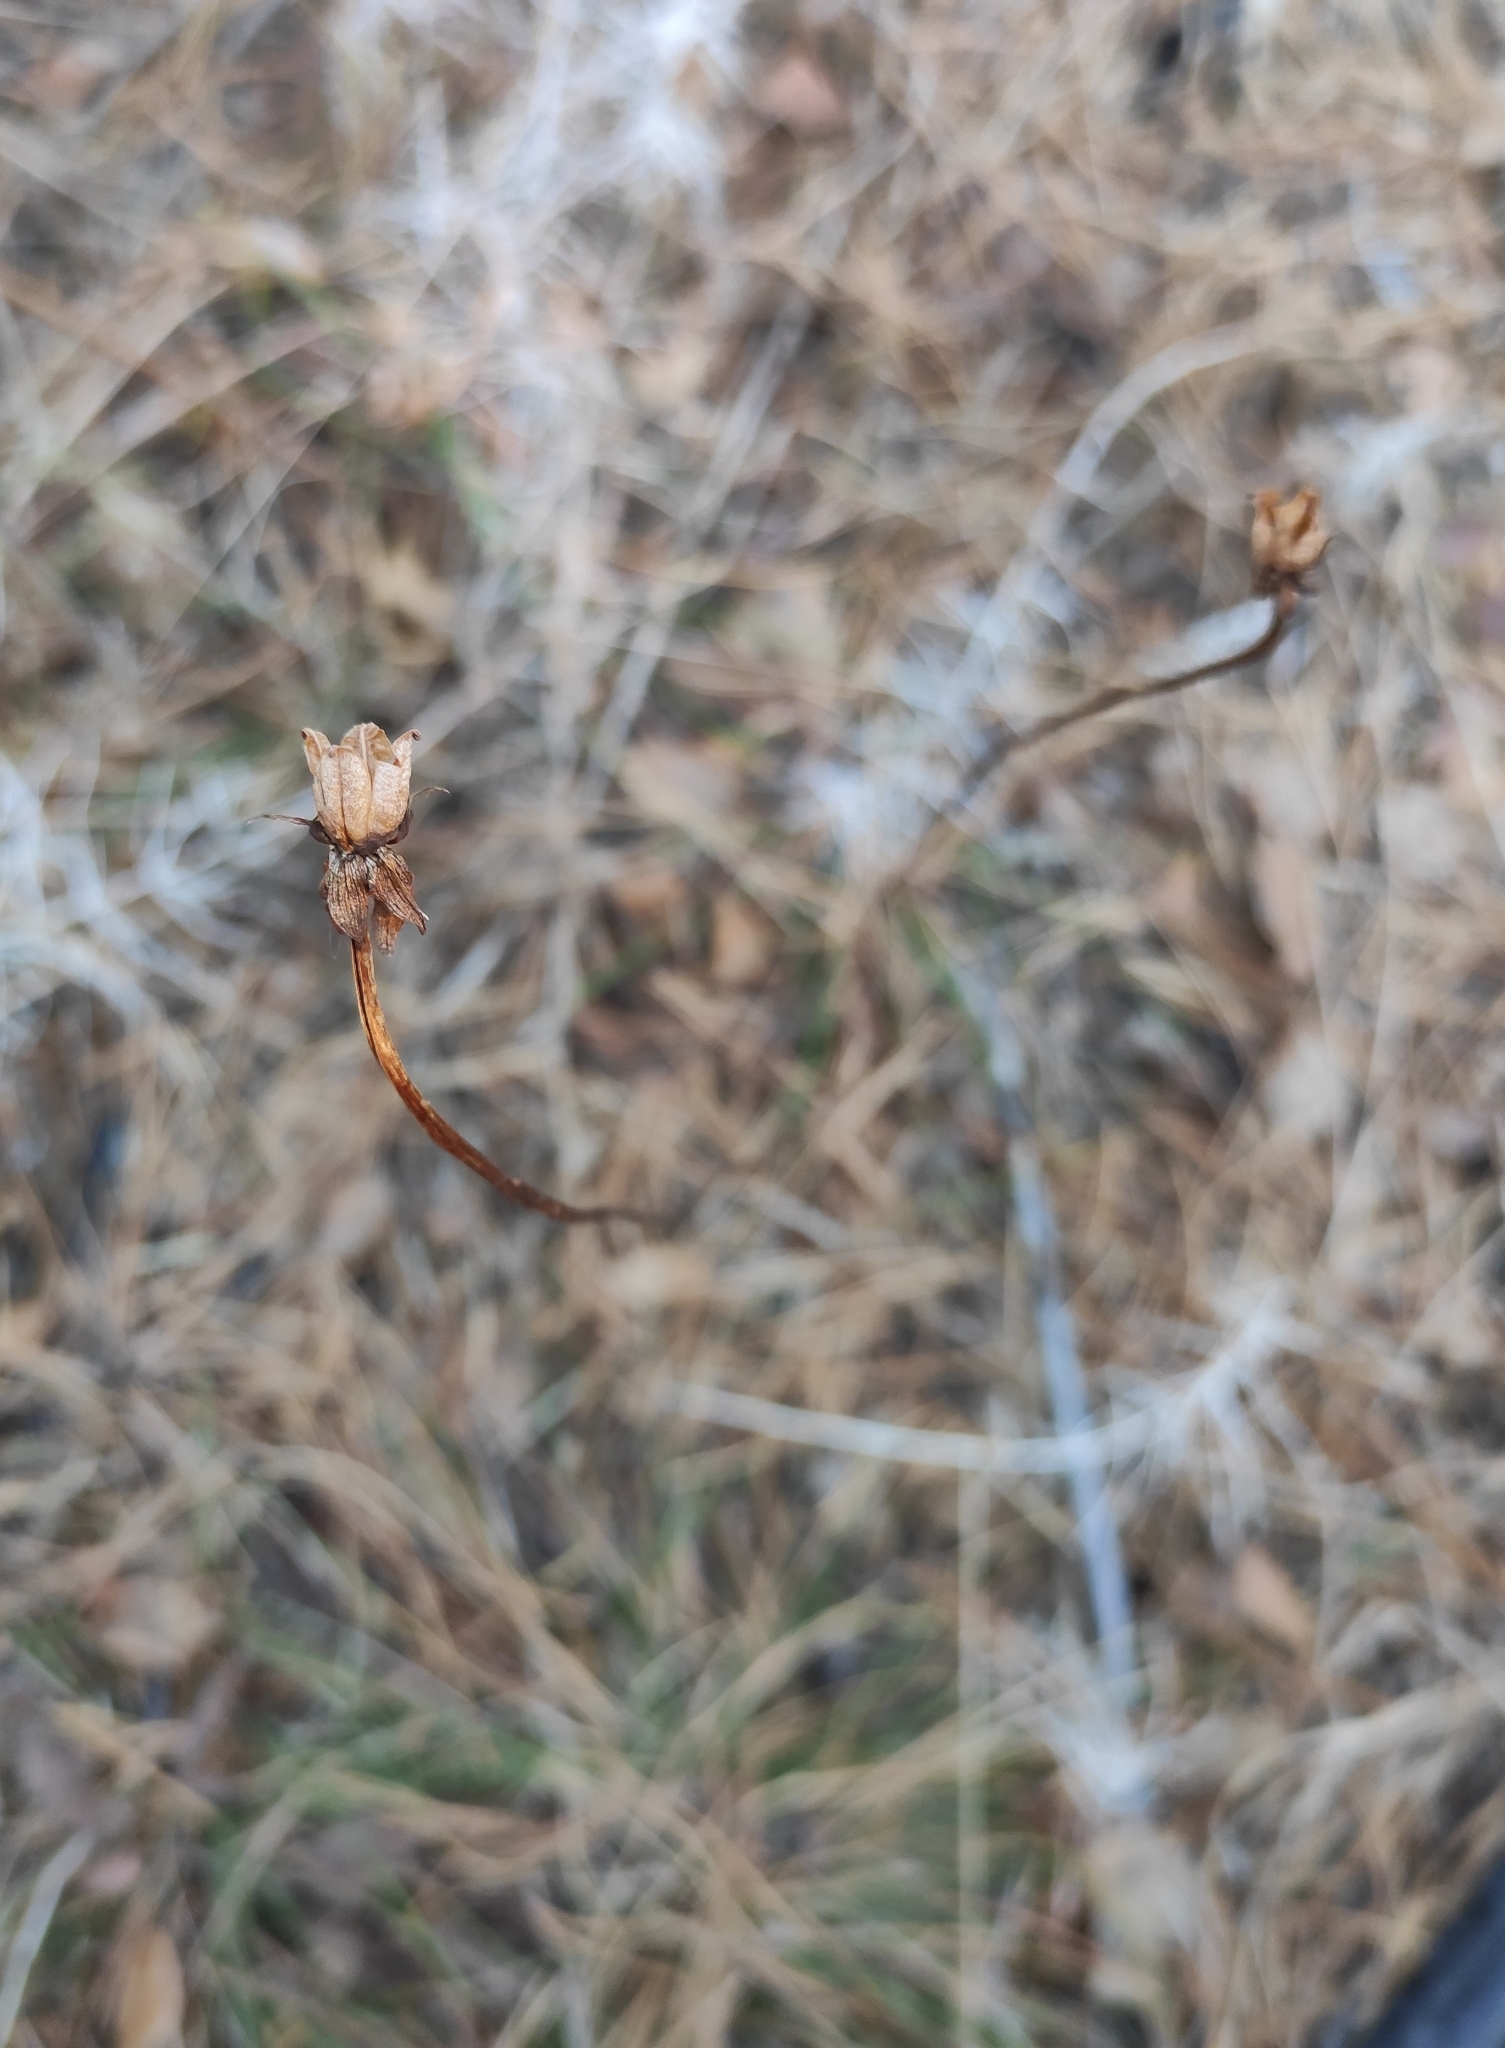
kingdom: Plantae
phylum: Tracheophyta
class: Magnoliopsida
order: Celastrales
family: Parnassiaceae
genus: Parnassia
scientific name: Parnassia palustris
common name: Grass-of-parnassus
